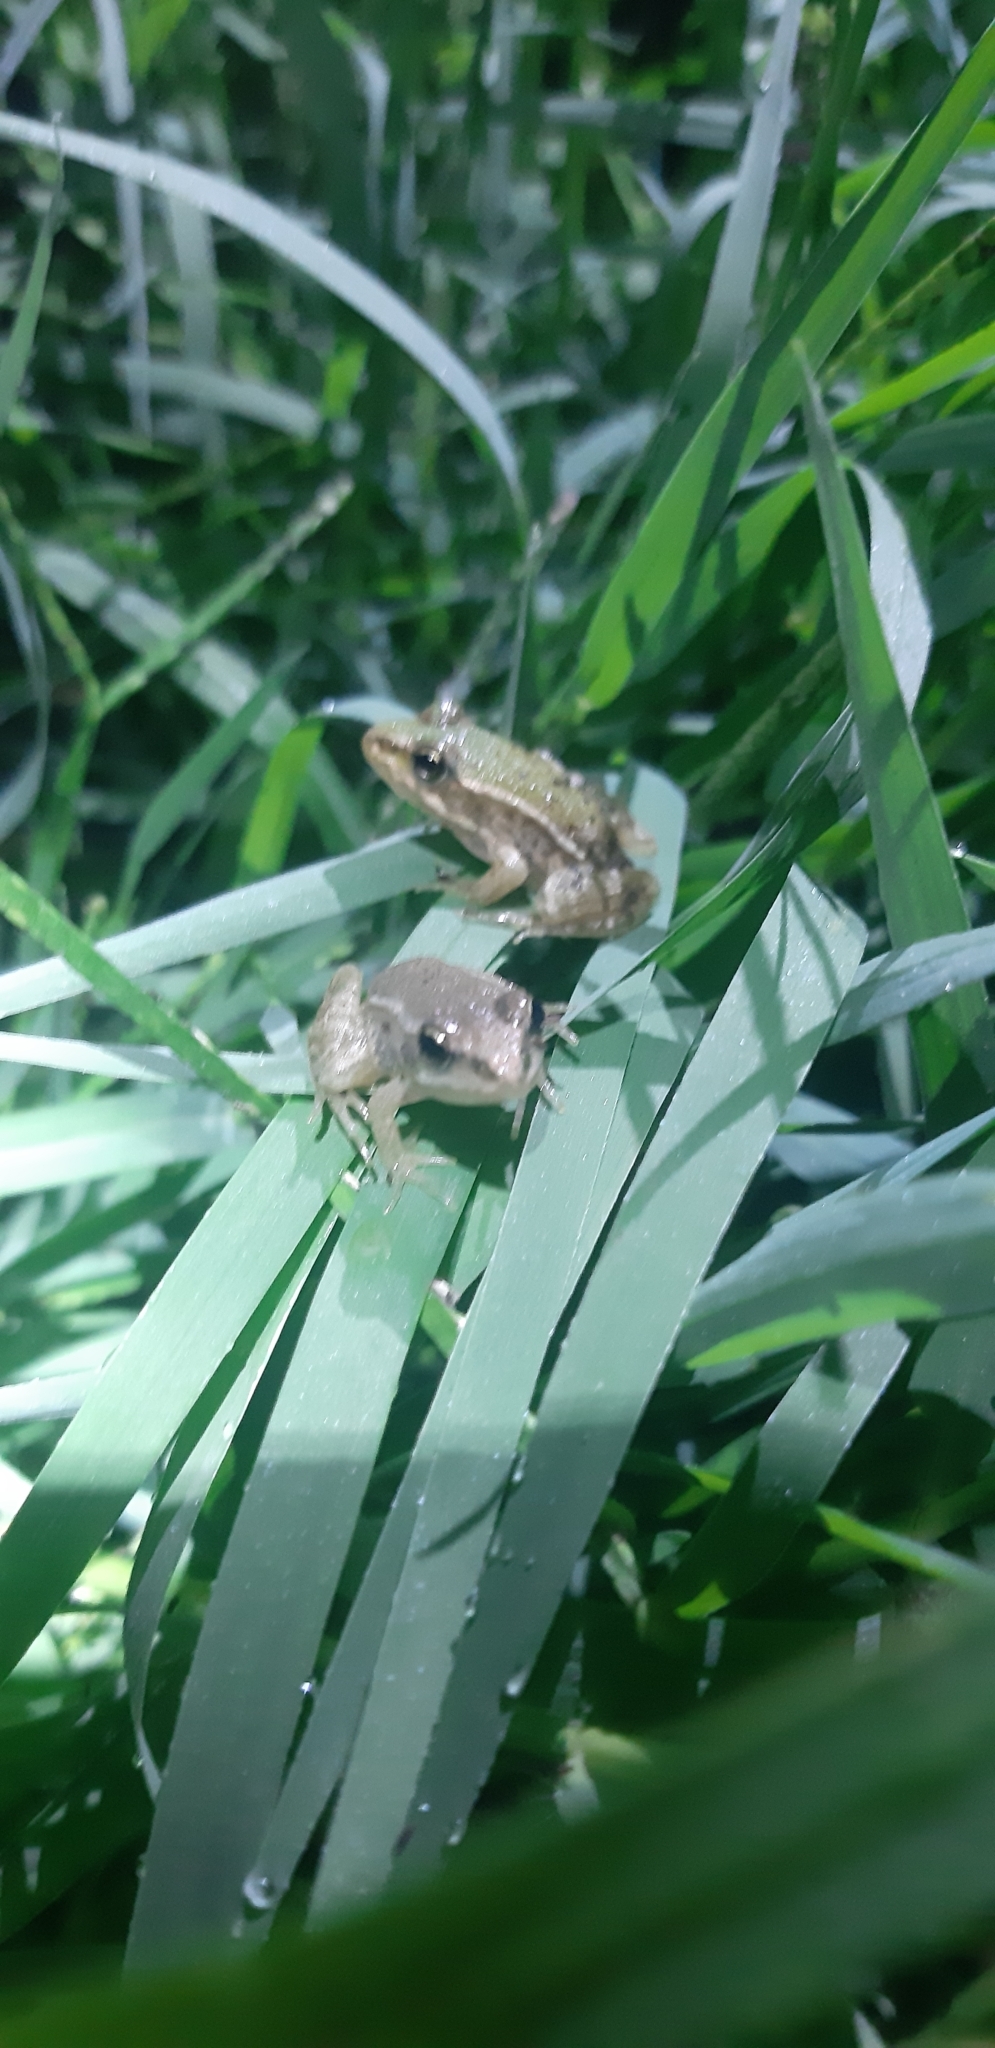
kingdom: Animalia
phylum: Chordata
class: Amphibia
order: Anura
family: Ranidae
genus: Pelophylax
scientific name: Pelophylax
